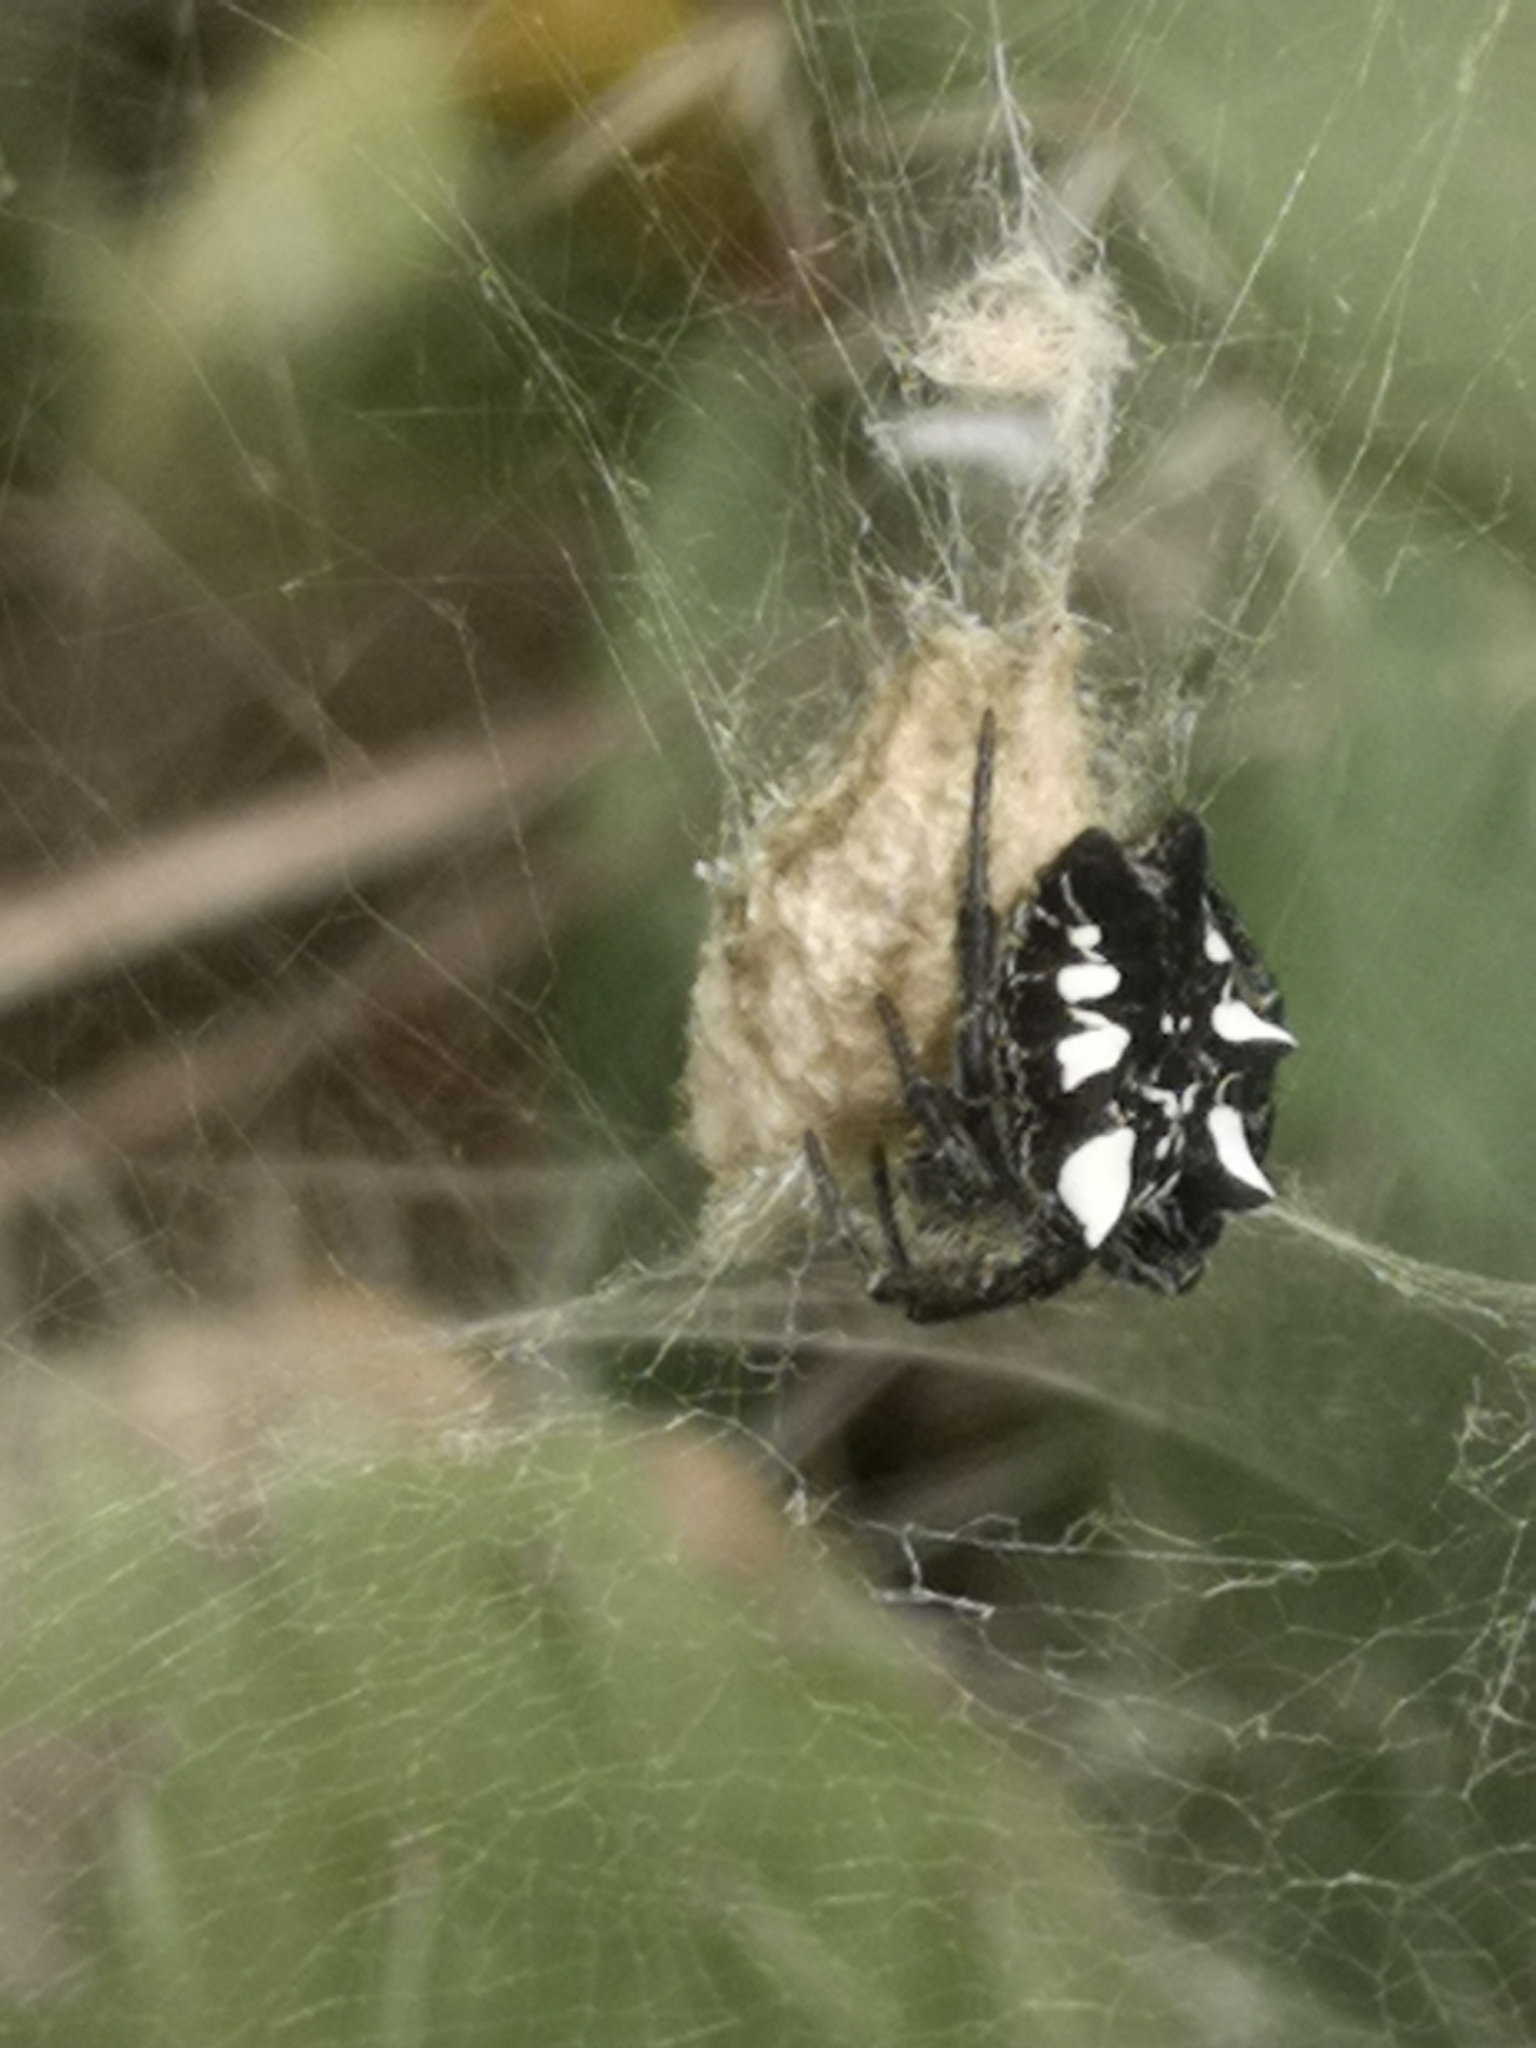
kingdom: Animalia
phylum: Arthropoda
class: Arachnida
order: Araneae
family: Araneidae
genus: Cyrtophora
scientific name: Cyrtophora citricola
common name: Orb weavers
